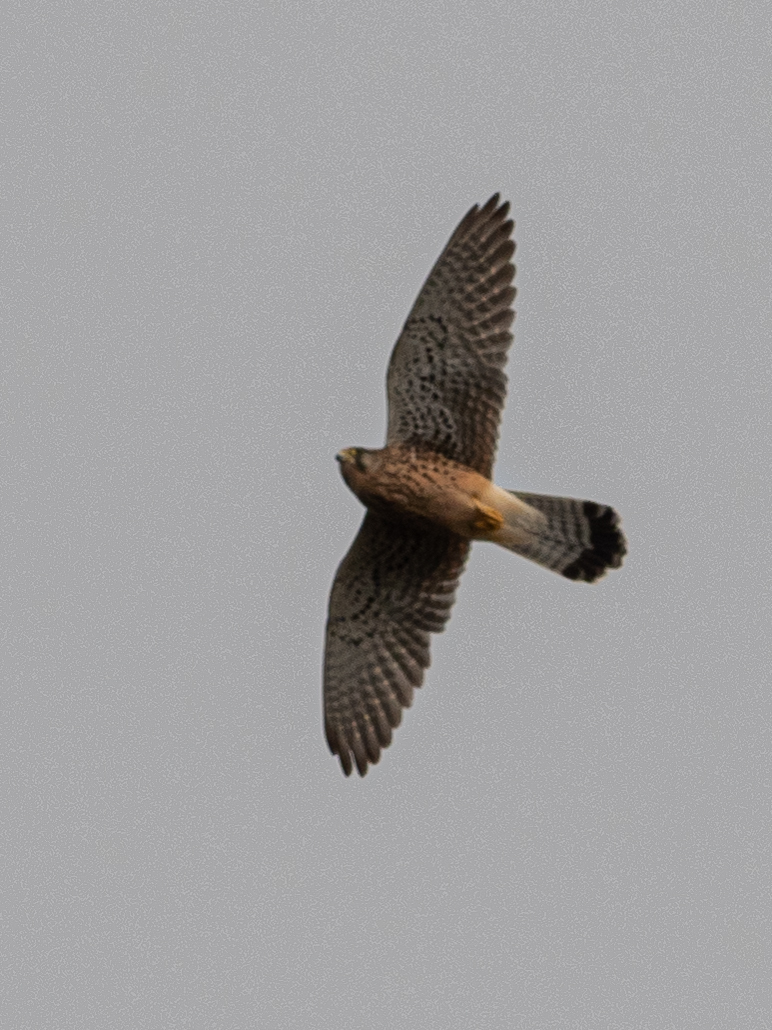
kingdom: Animalia
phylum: Chordata
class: Aves
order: Falconiformes
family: Falconidae
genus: Falco
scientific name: Falco tinnunculus
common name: Common kestrel
